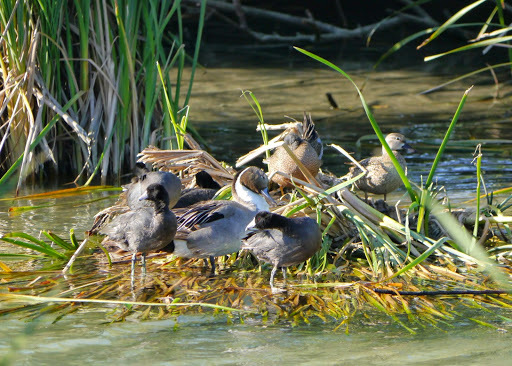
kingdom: Animalia
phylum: Chordata
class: Aves
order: Anseriformes
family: Anatidae
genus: Anas
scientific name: Anas acuta
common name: Northern pintail
